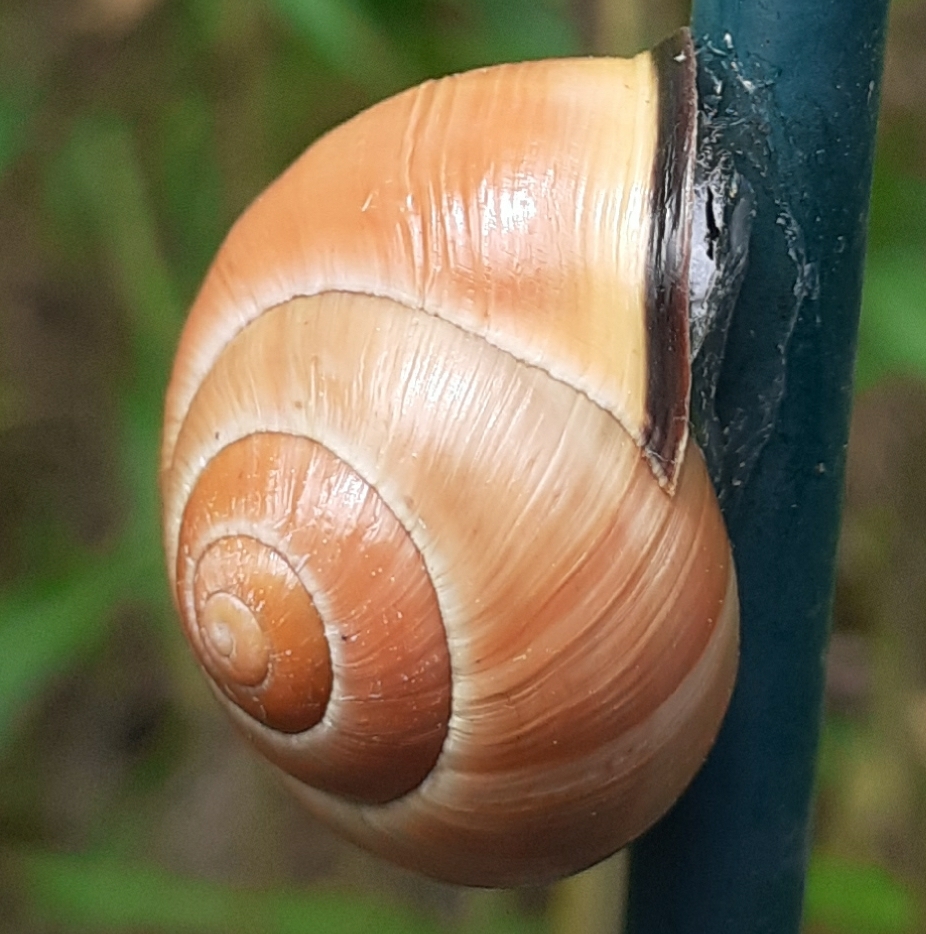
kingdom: Animalia
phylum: Mollusca
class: Gastropoda
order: Stylommatophora
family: Helicidae
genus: Cepaea
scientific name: Cepaea nemoralis
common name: Grovesnail
